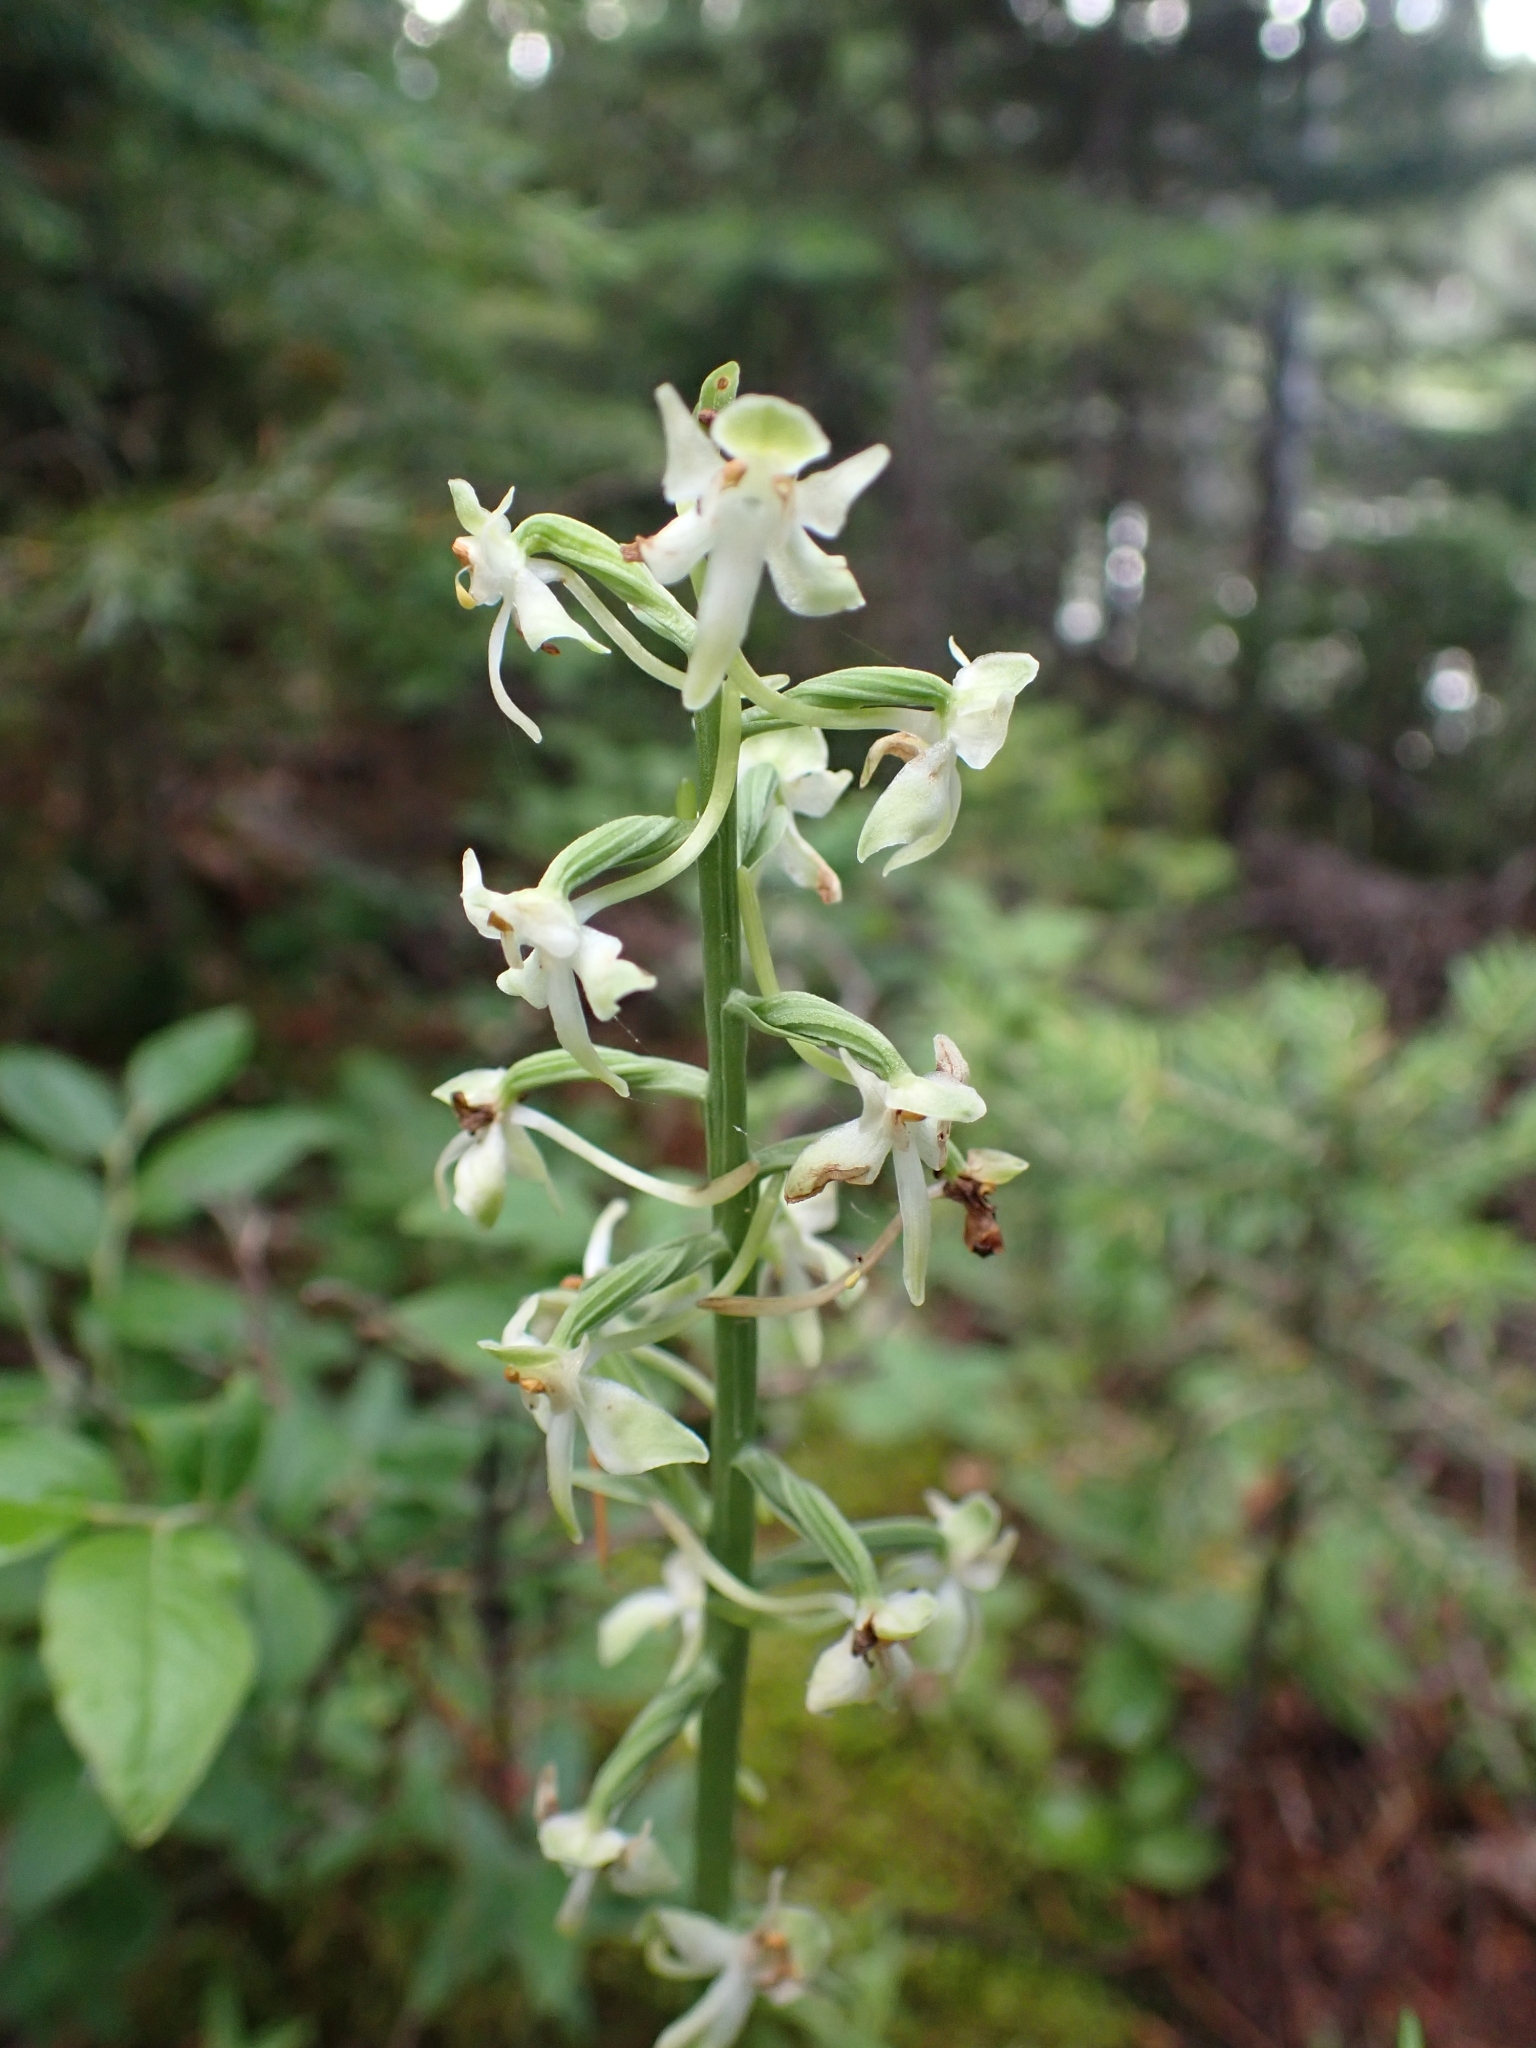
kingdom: Plantae
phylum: Tracheophyta
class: Liliopsida
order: Asparagales
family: Orchidaceae
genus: Platanthera
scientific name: Platanthera orbiculata
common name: Large round-leaved orchid
